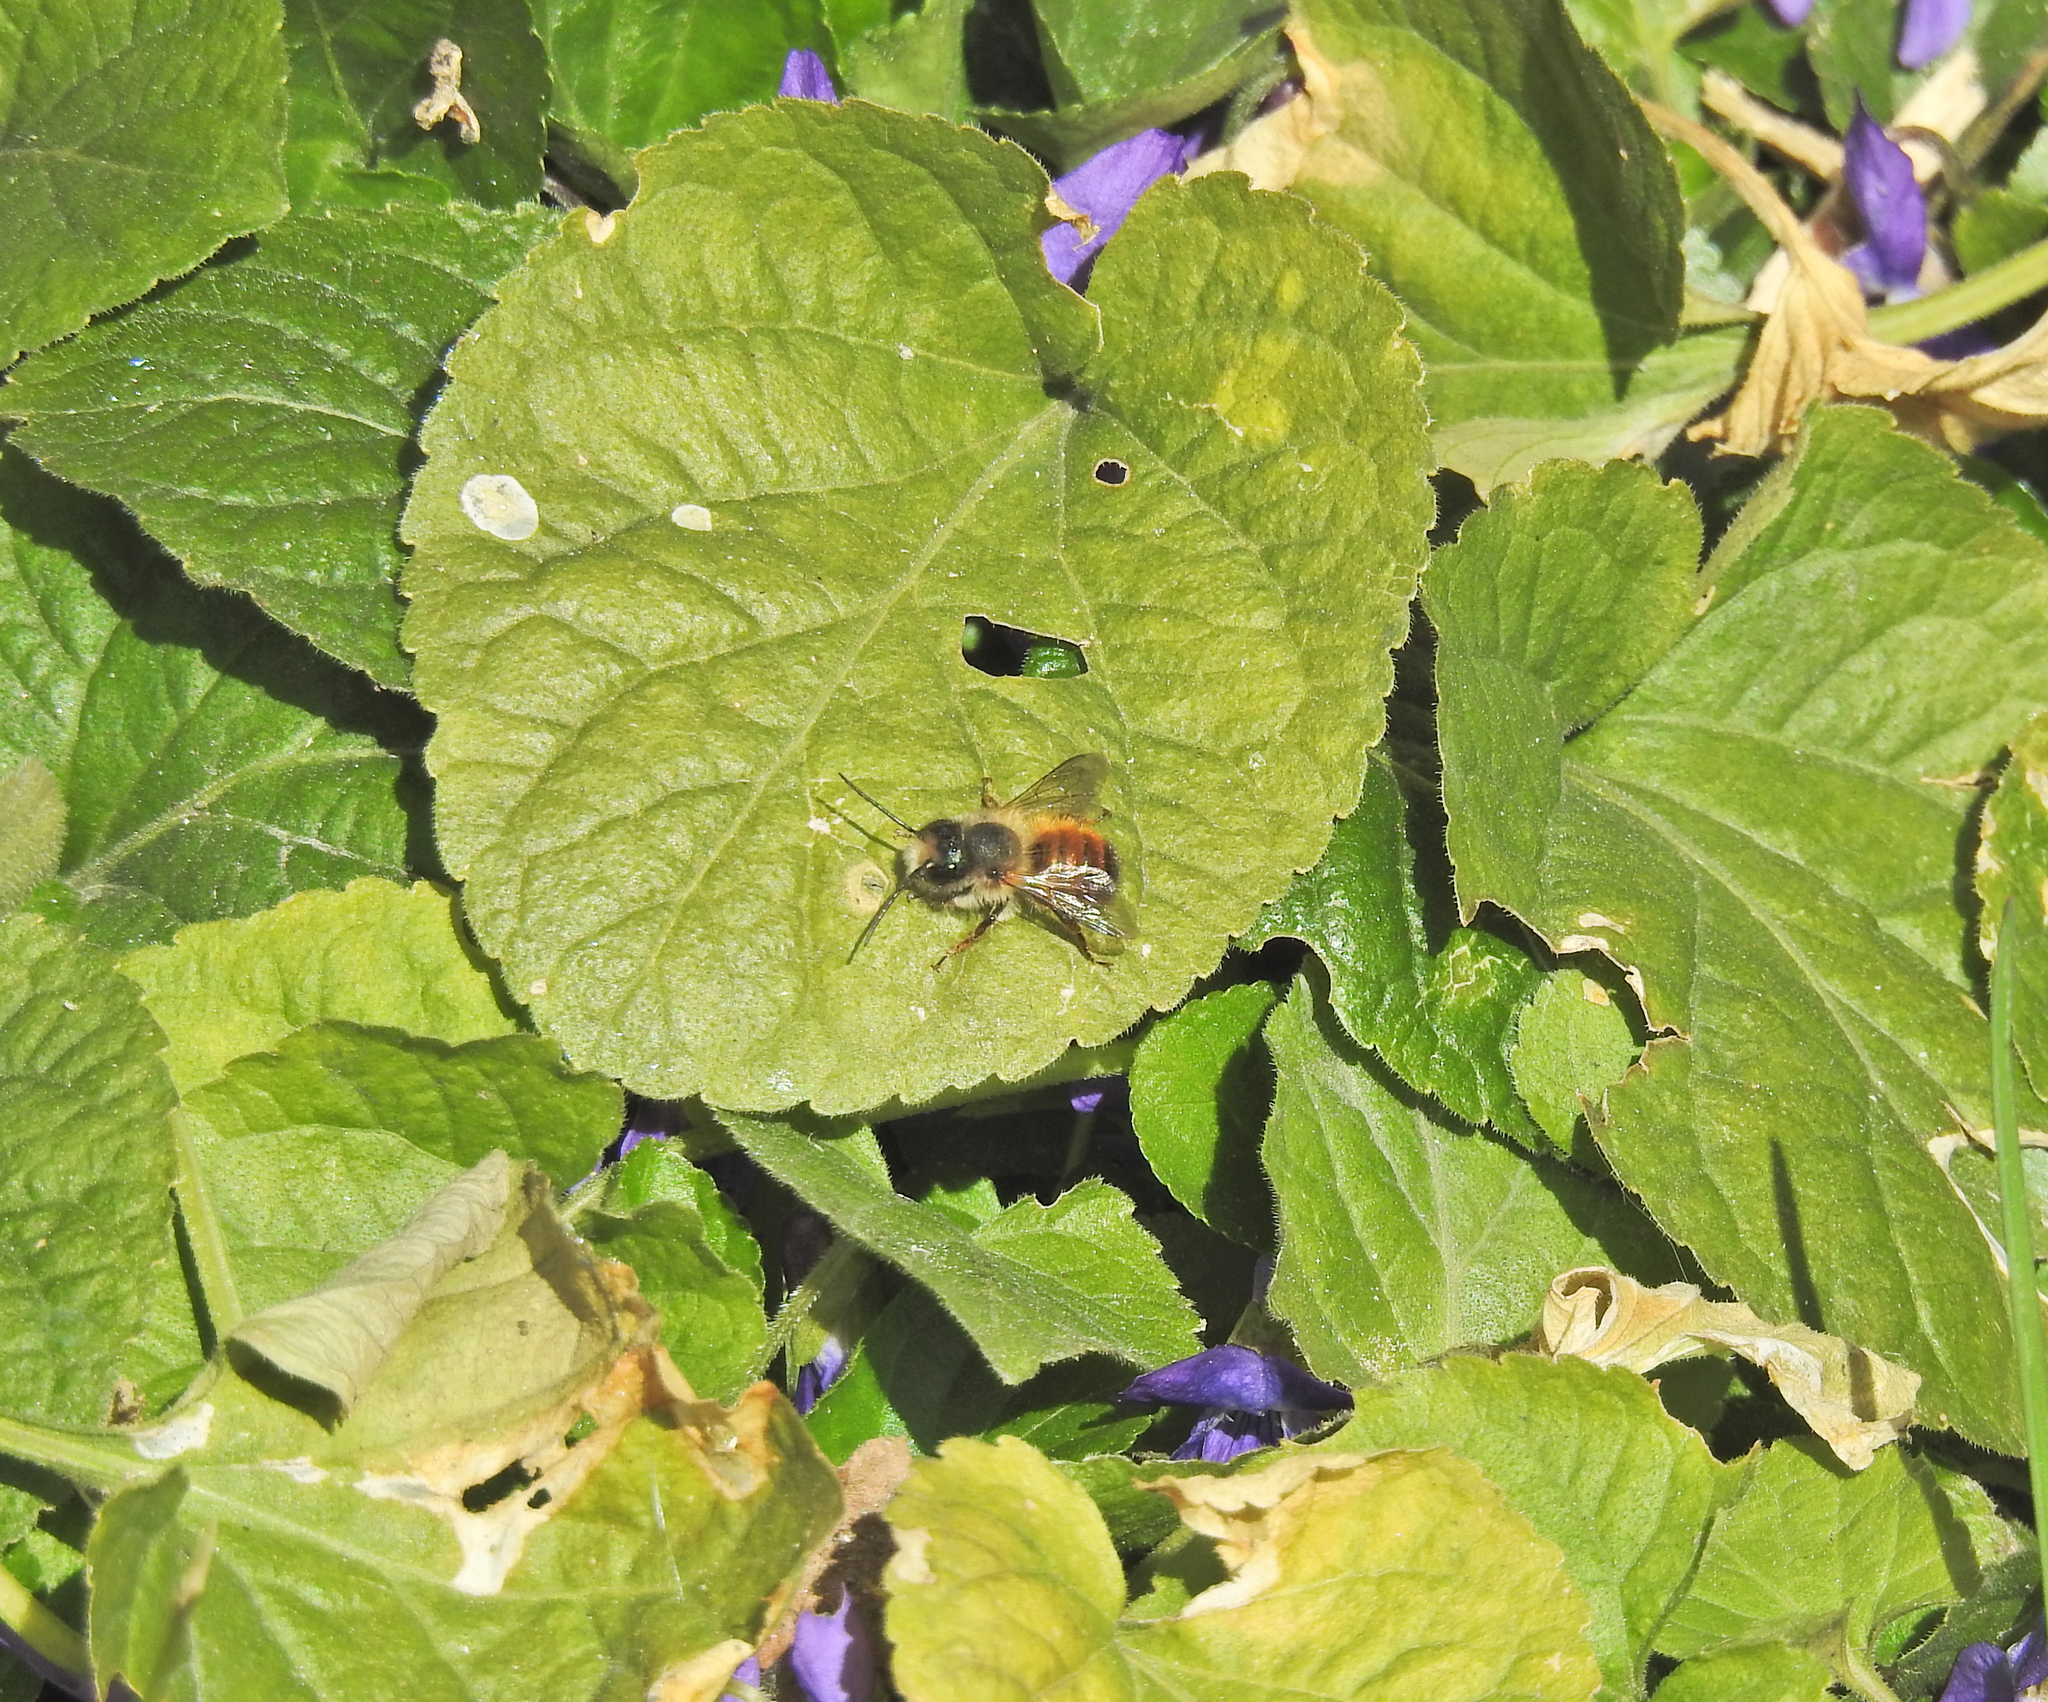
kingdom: Animalia
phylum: Arthropoda
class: Insecta
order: Hymenoptera
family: Megachilidae
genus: Osmia
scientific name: Osmia bicornis
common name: Red mason bee
